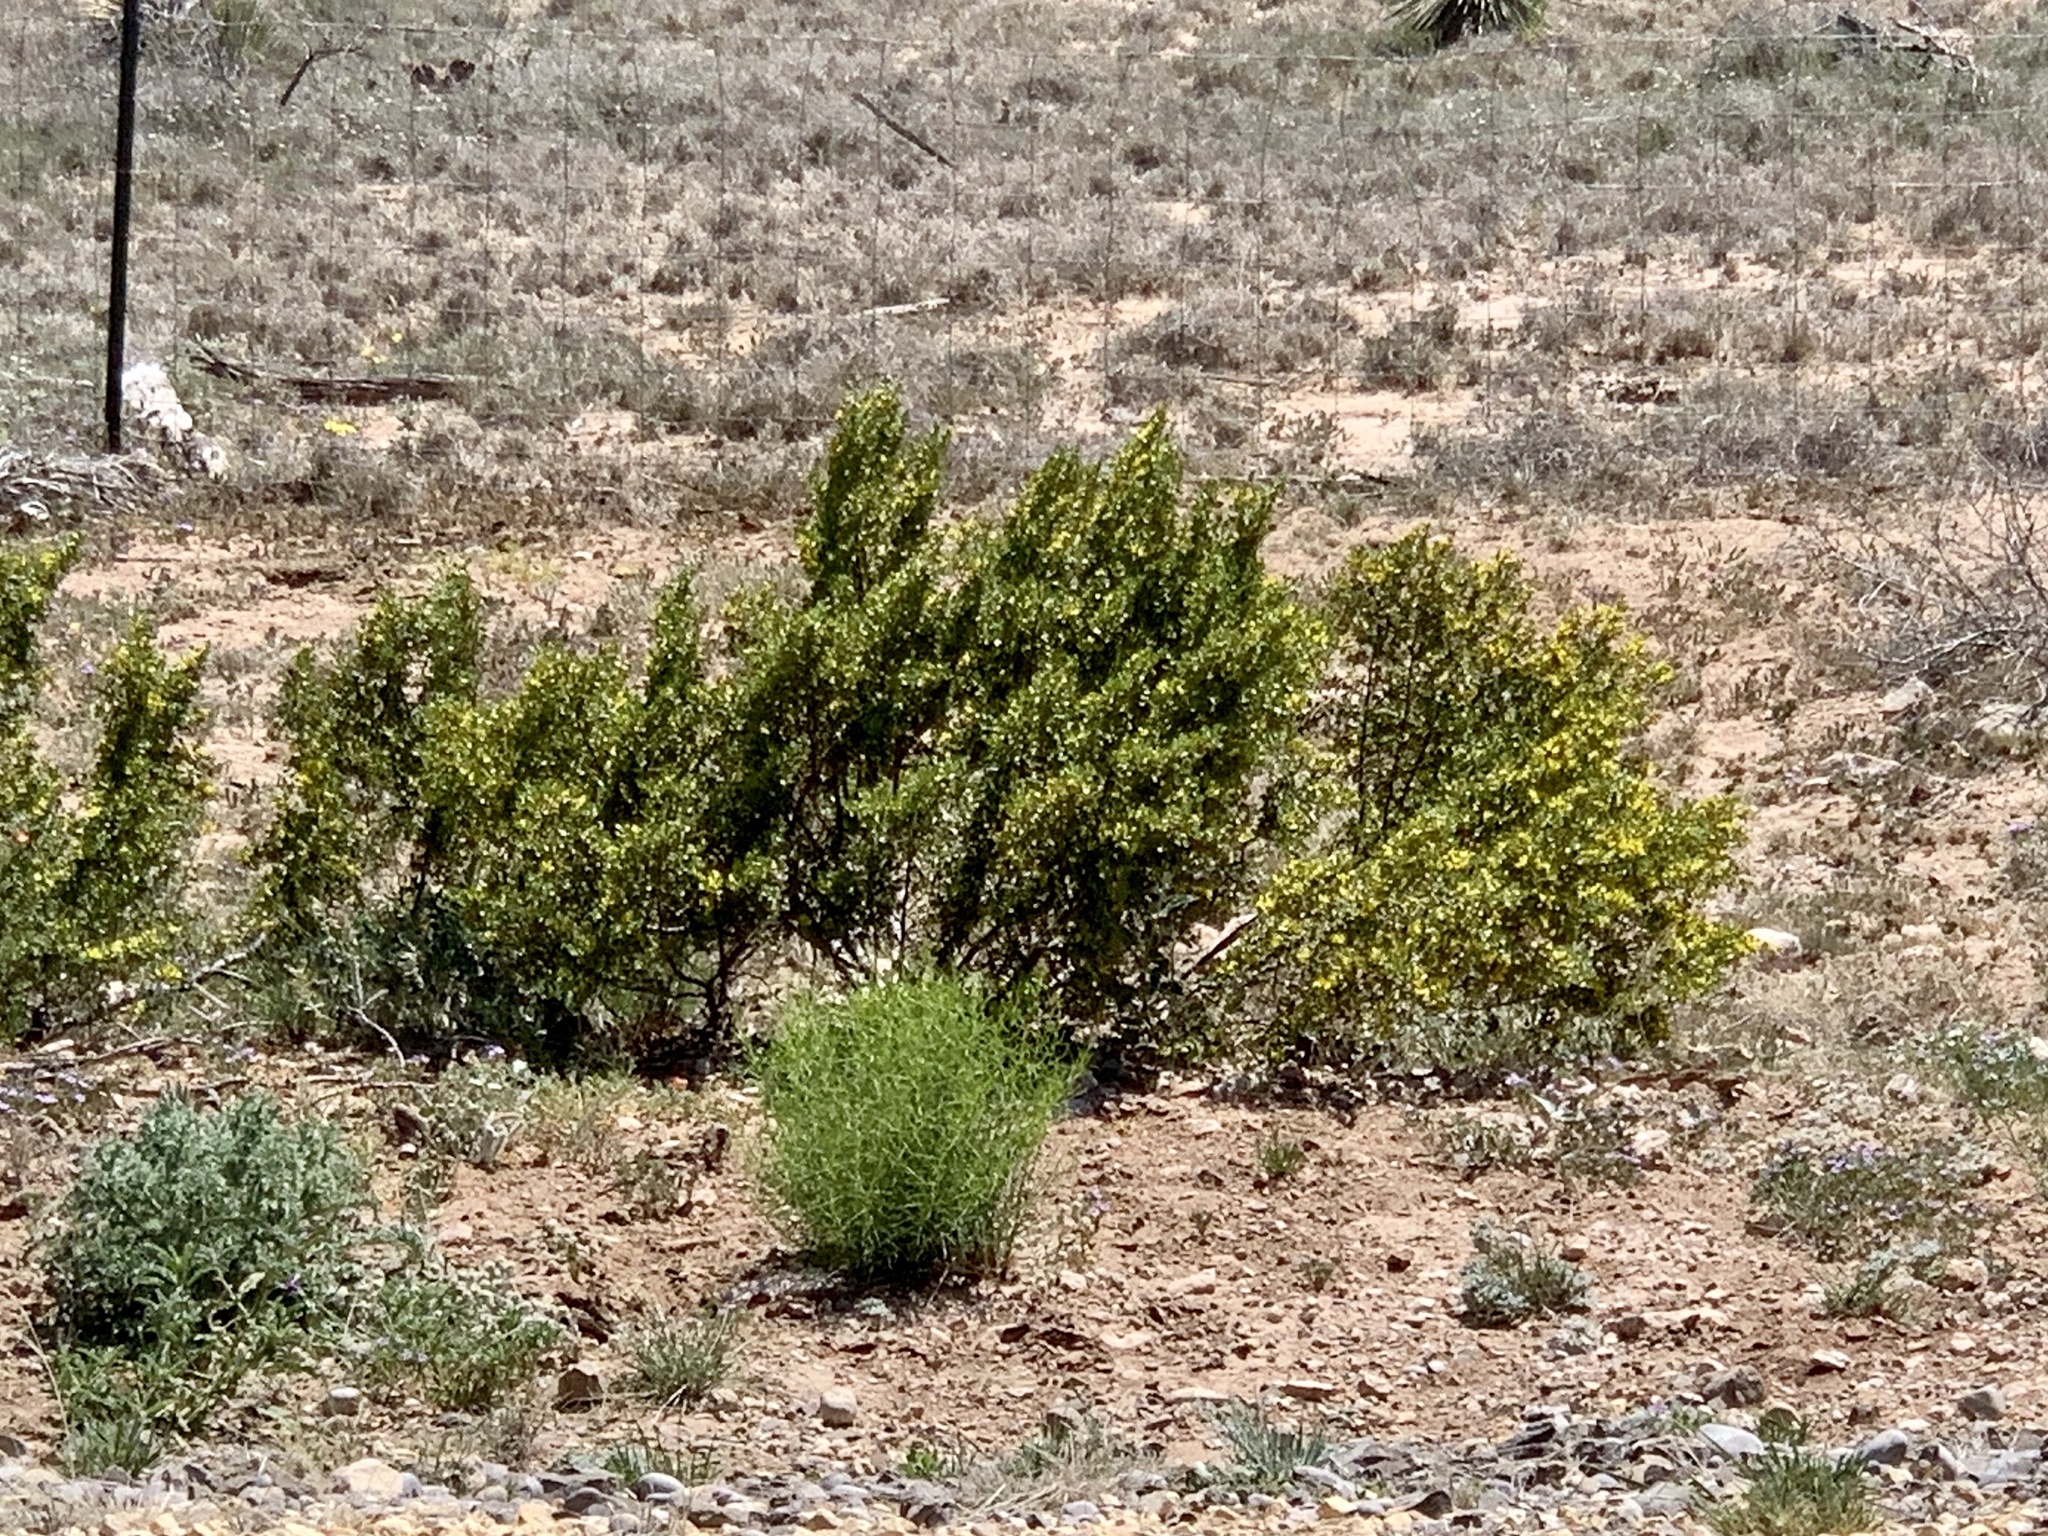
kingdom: Plantae
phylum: Tracheophyta
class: Magnoliopsida
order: Zygophyllales
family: Zygophyllaceae
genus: Larrea
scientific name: Larrea tridentata
